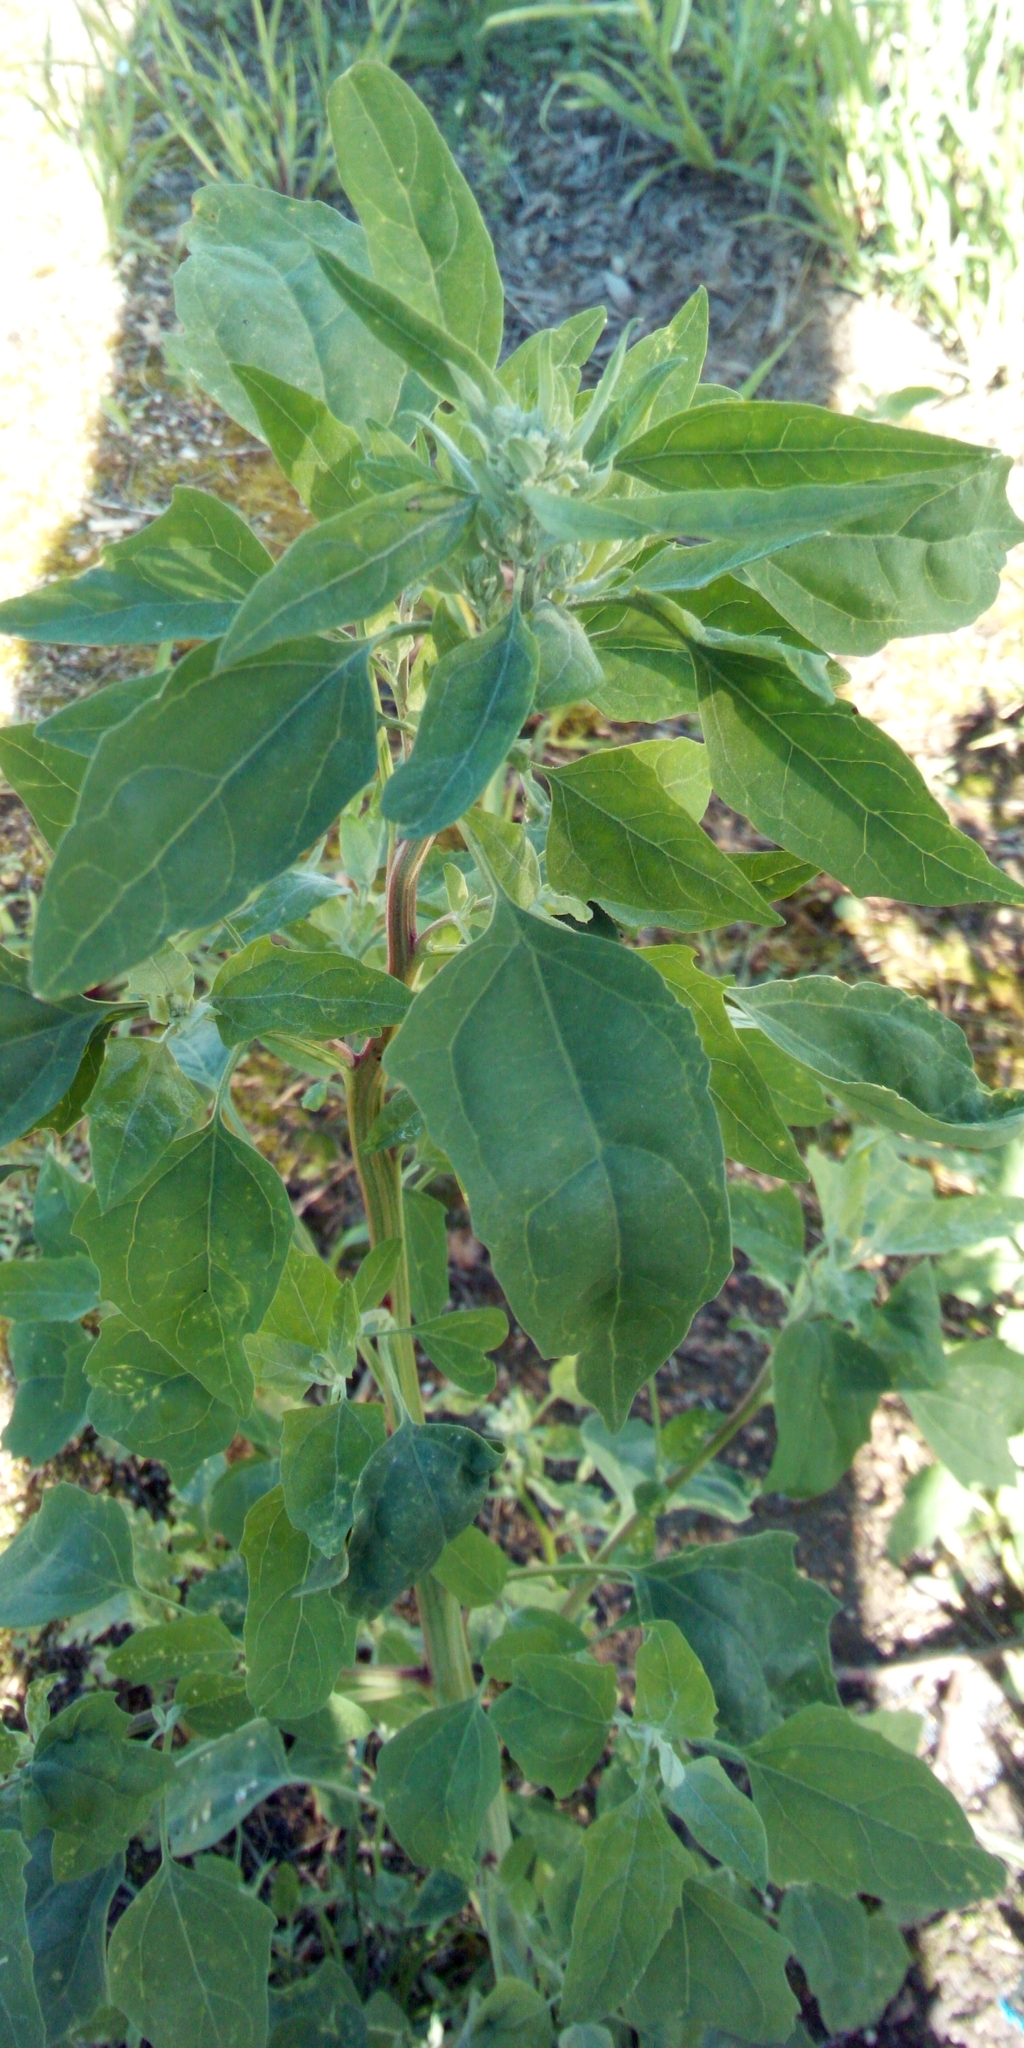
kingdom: Plantae
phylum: Tracheophyta
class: Magnoliopsida
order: Caryophyllales
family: Amaranthaceae
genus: Chenopodium
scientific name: Chenopodium album
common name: Fat-hen
